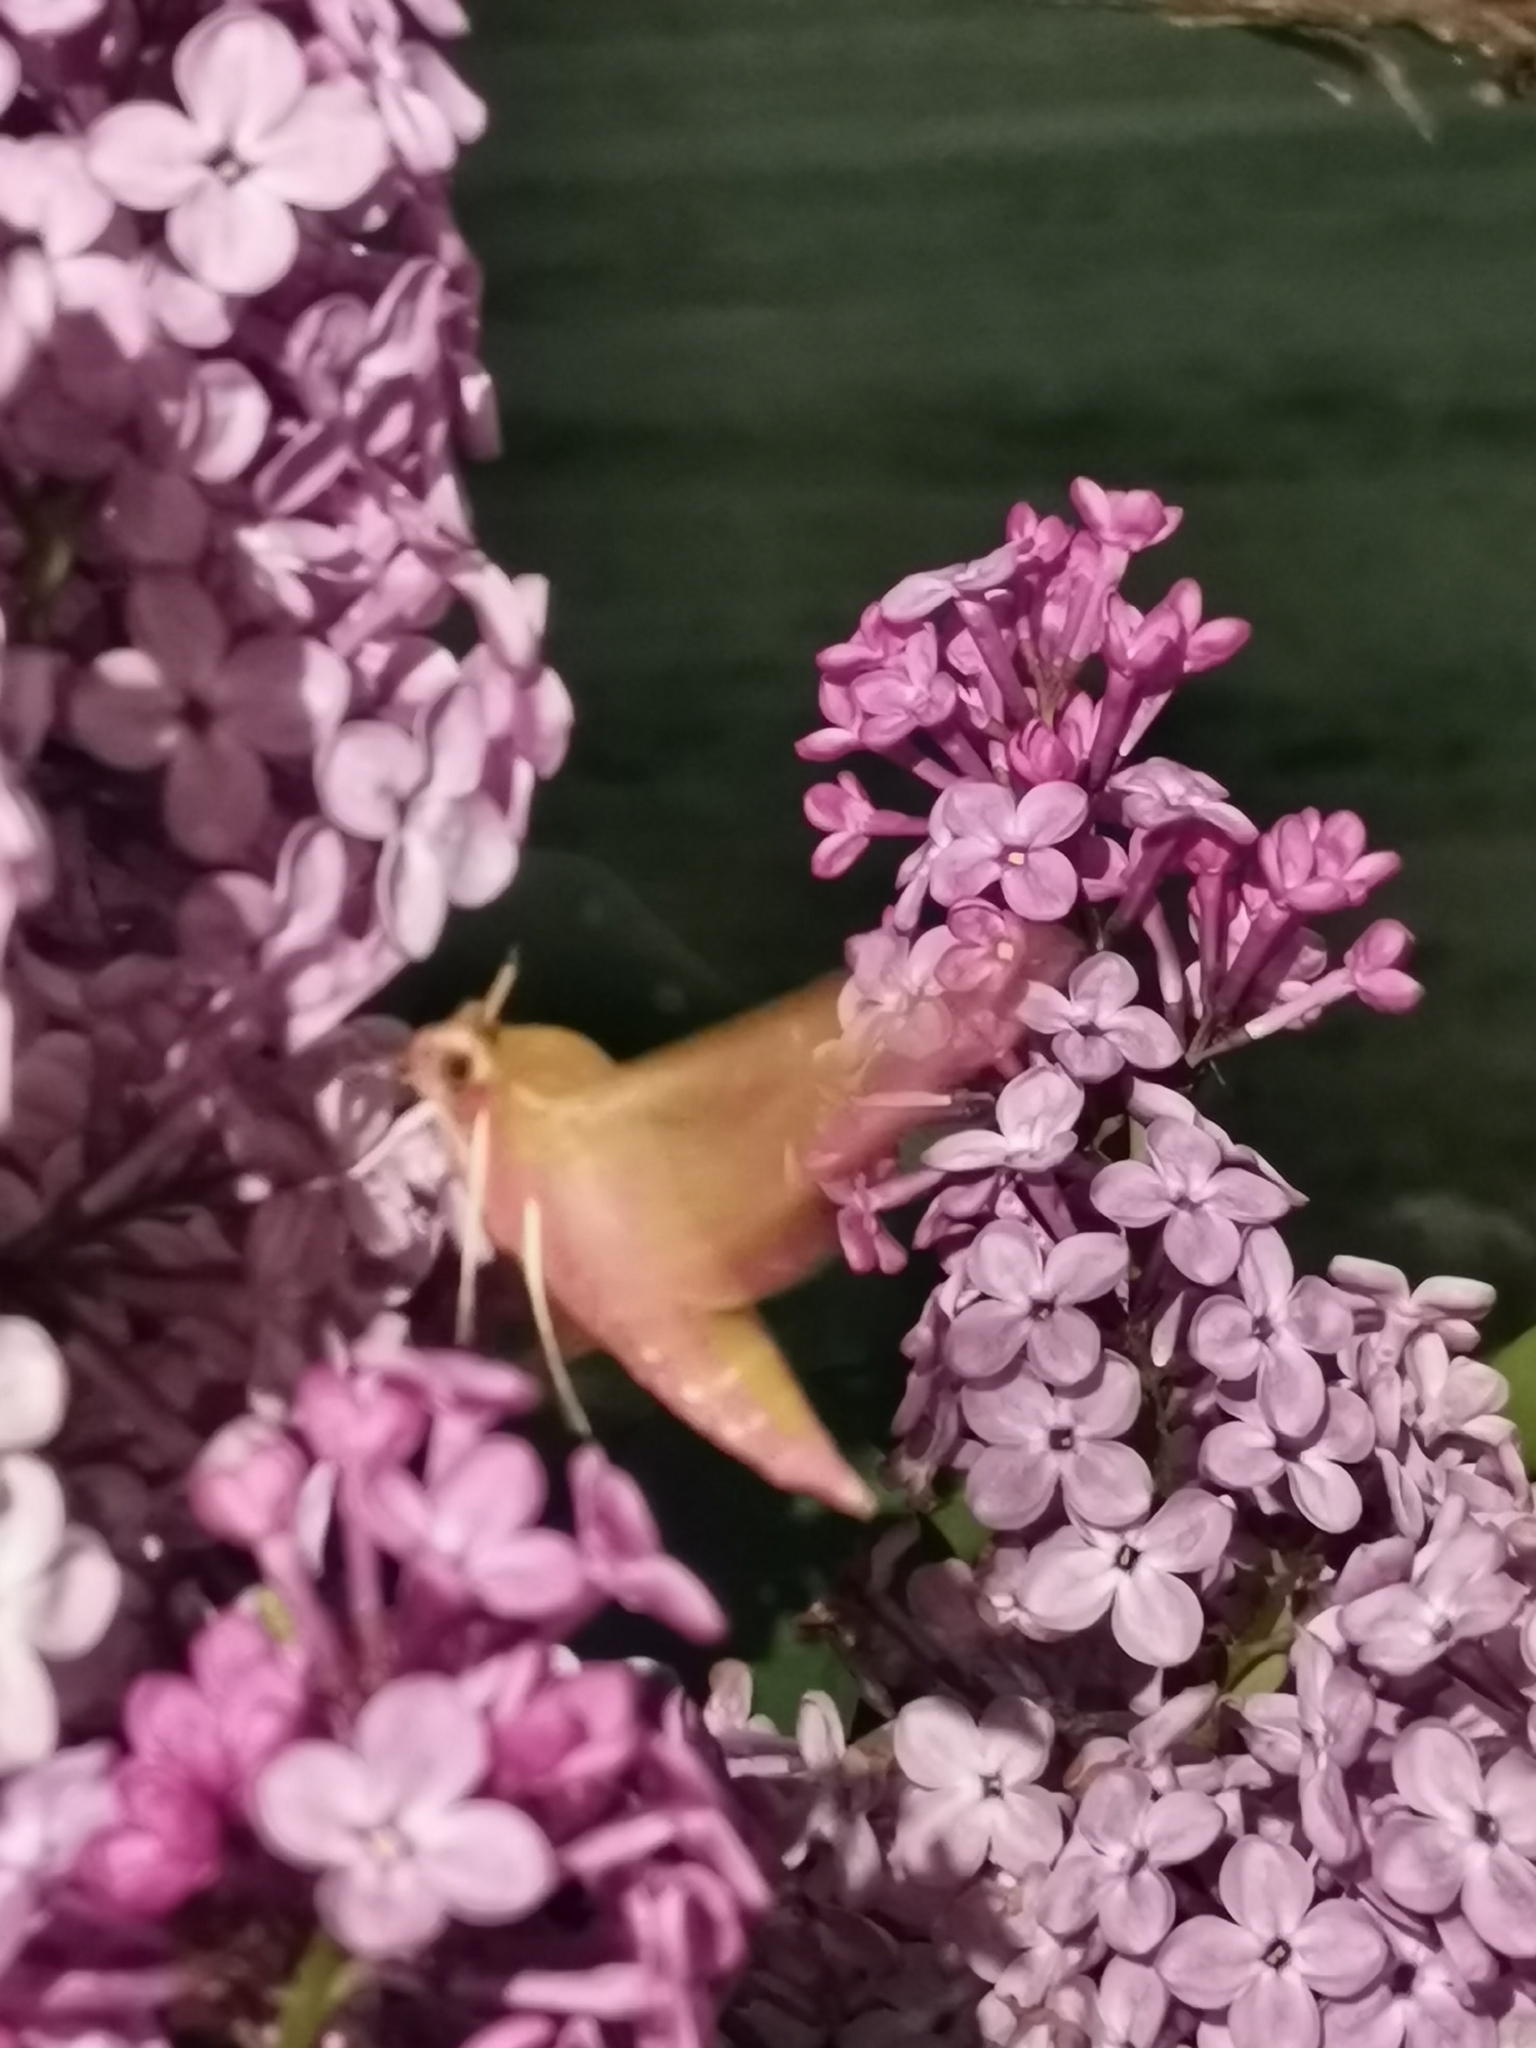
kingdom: Animalia
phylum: Arthropoda
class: Insecta
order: Lepidoptera
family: Sphingidae
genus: Deilephila
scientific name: Deilephila elpenor
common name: Elephant hawk-moth
